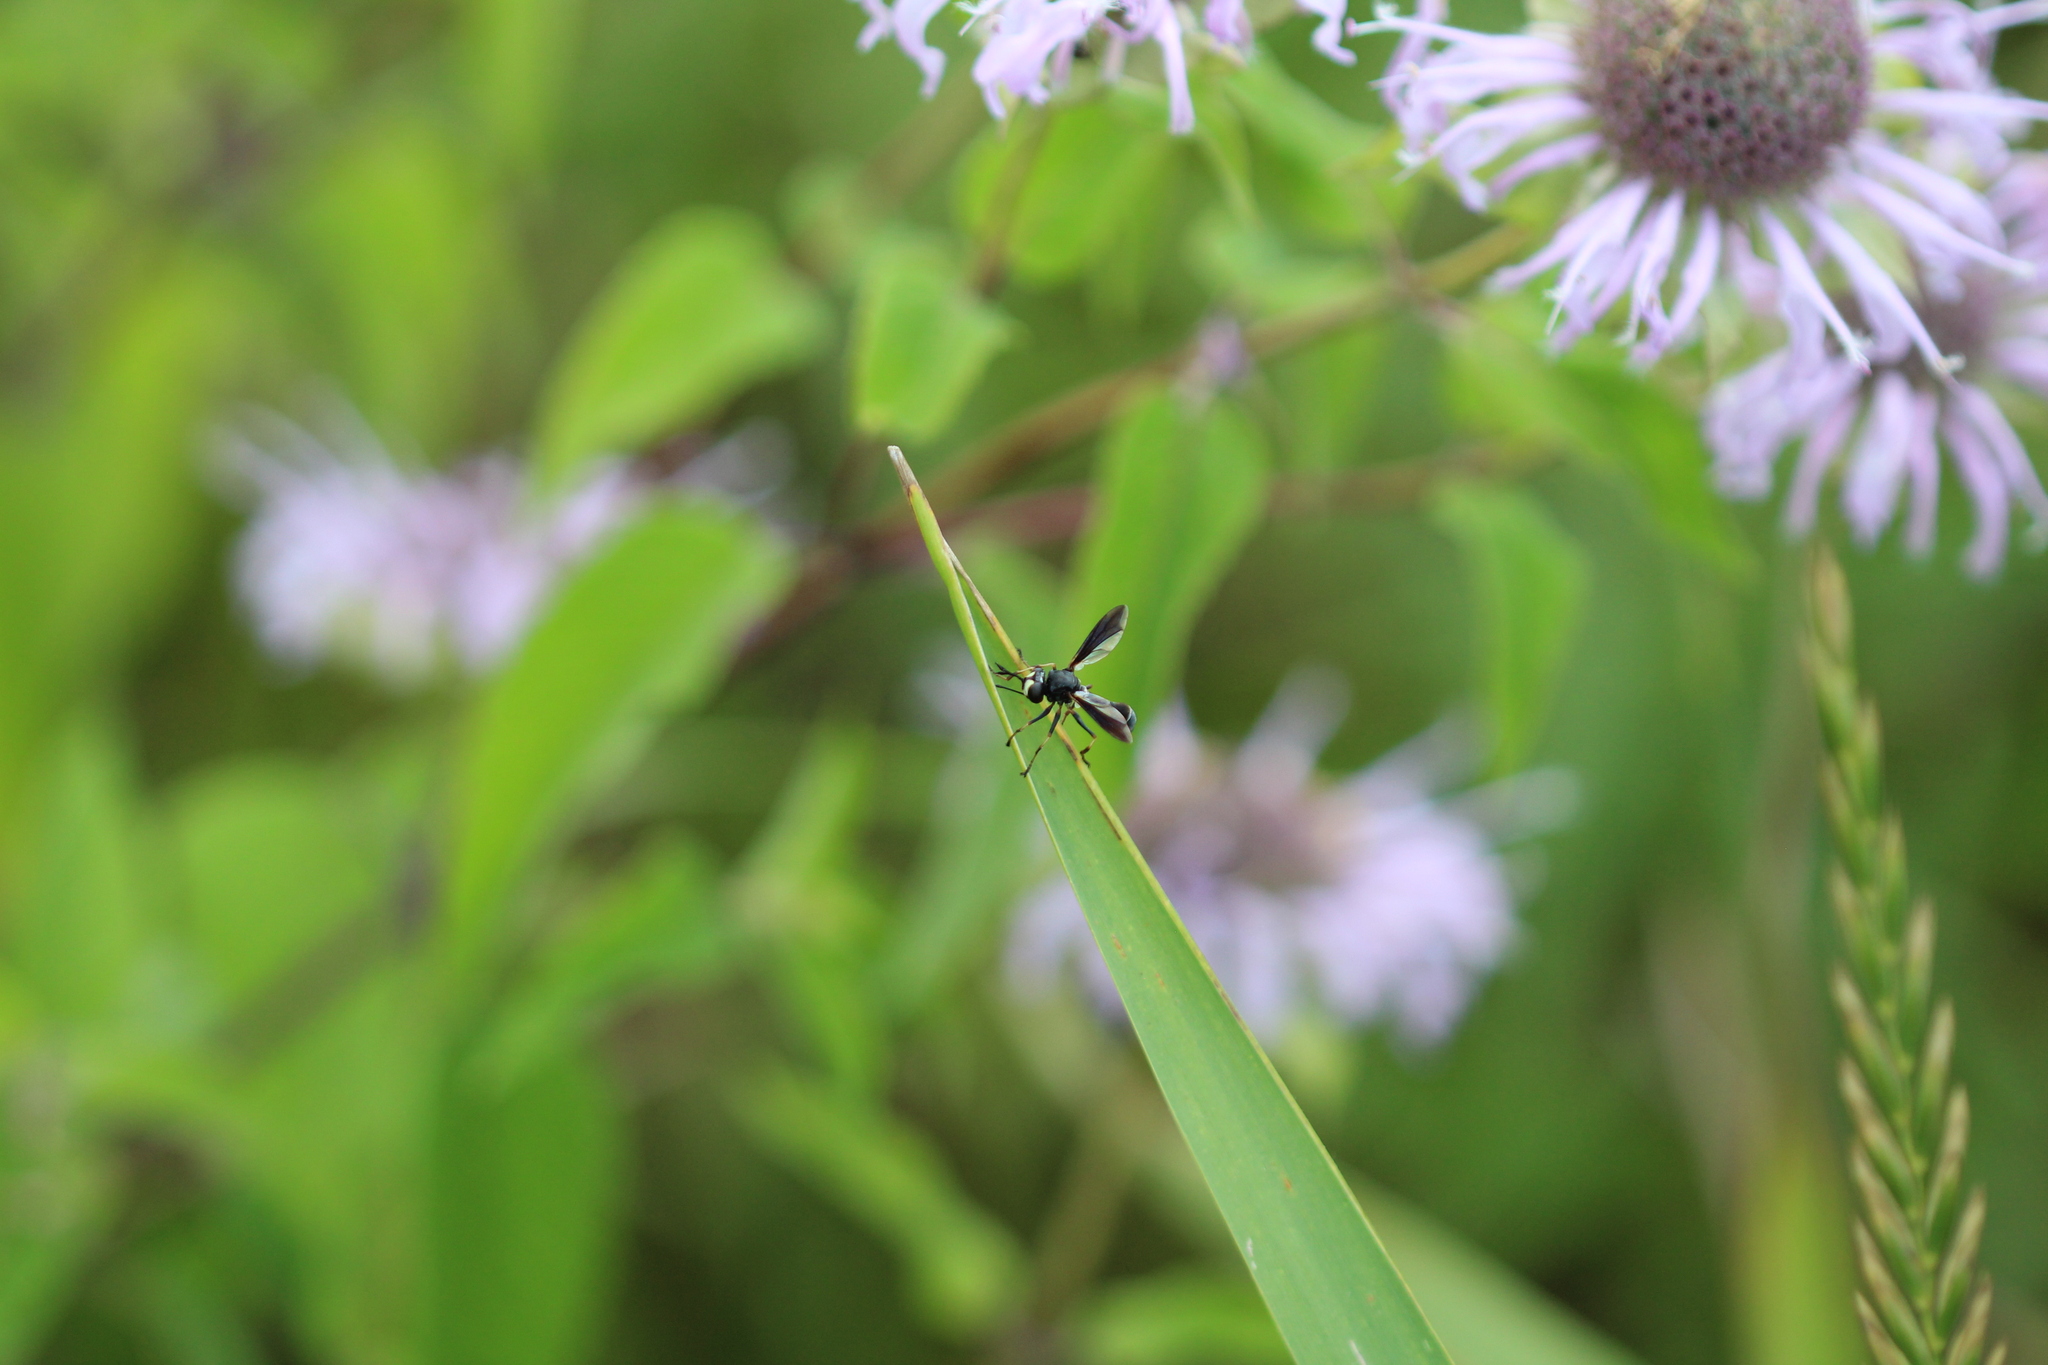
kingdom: Animalia
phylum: Arthropoda
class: Insecta
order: Lepidoptera
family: Sphingidae
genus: Hemaris
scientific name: Hemaris diffinis
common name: Bumblebee moth
